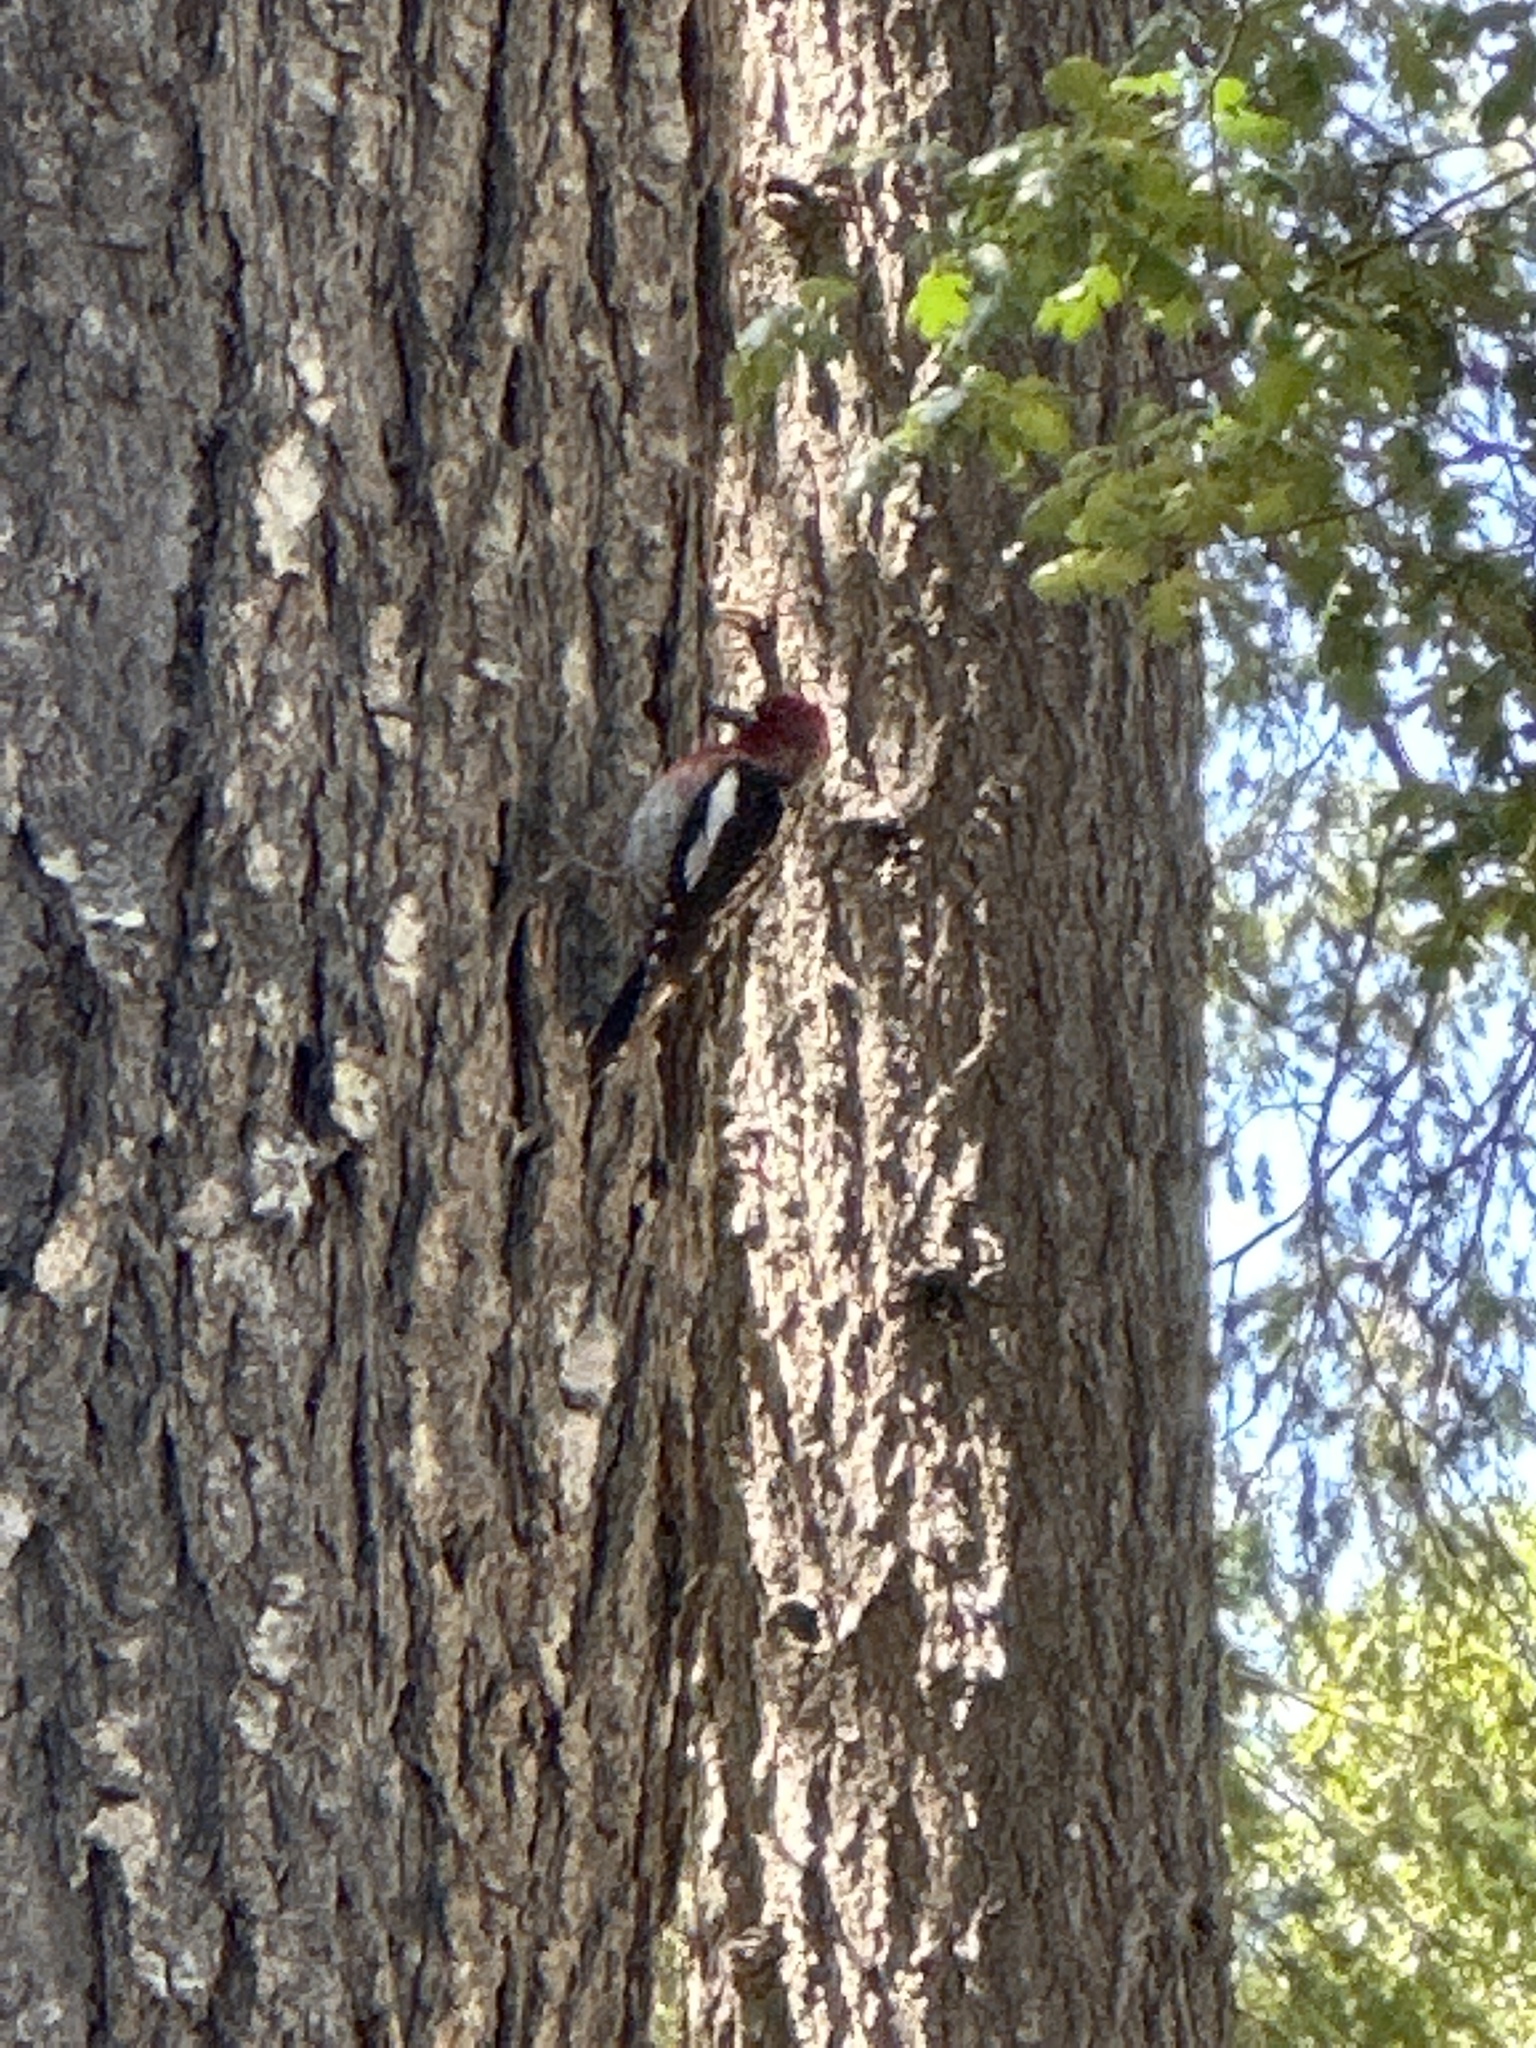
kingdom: Animalia
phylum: Chordata
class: Aves
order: Piciformes
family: Picidae
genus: Sphyrapicus
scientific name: Sphyrapicus ruber
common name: Red-breasted sapsucker
